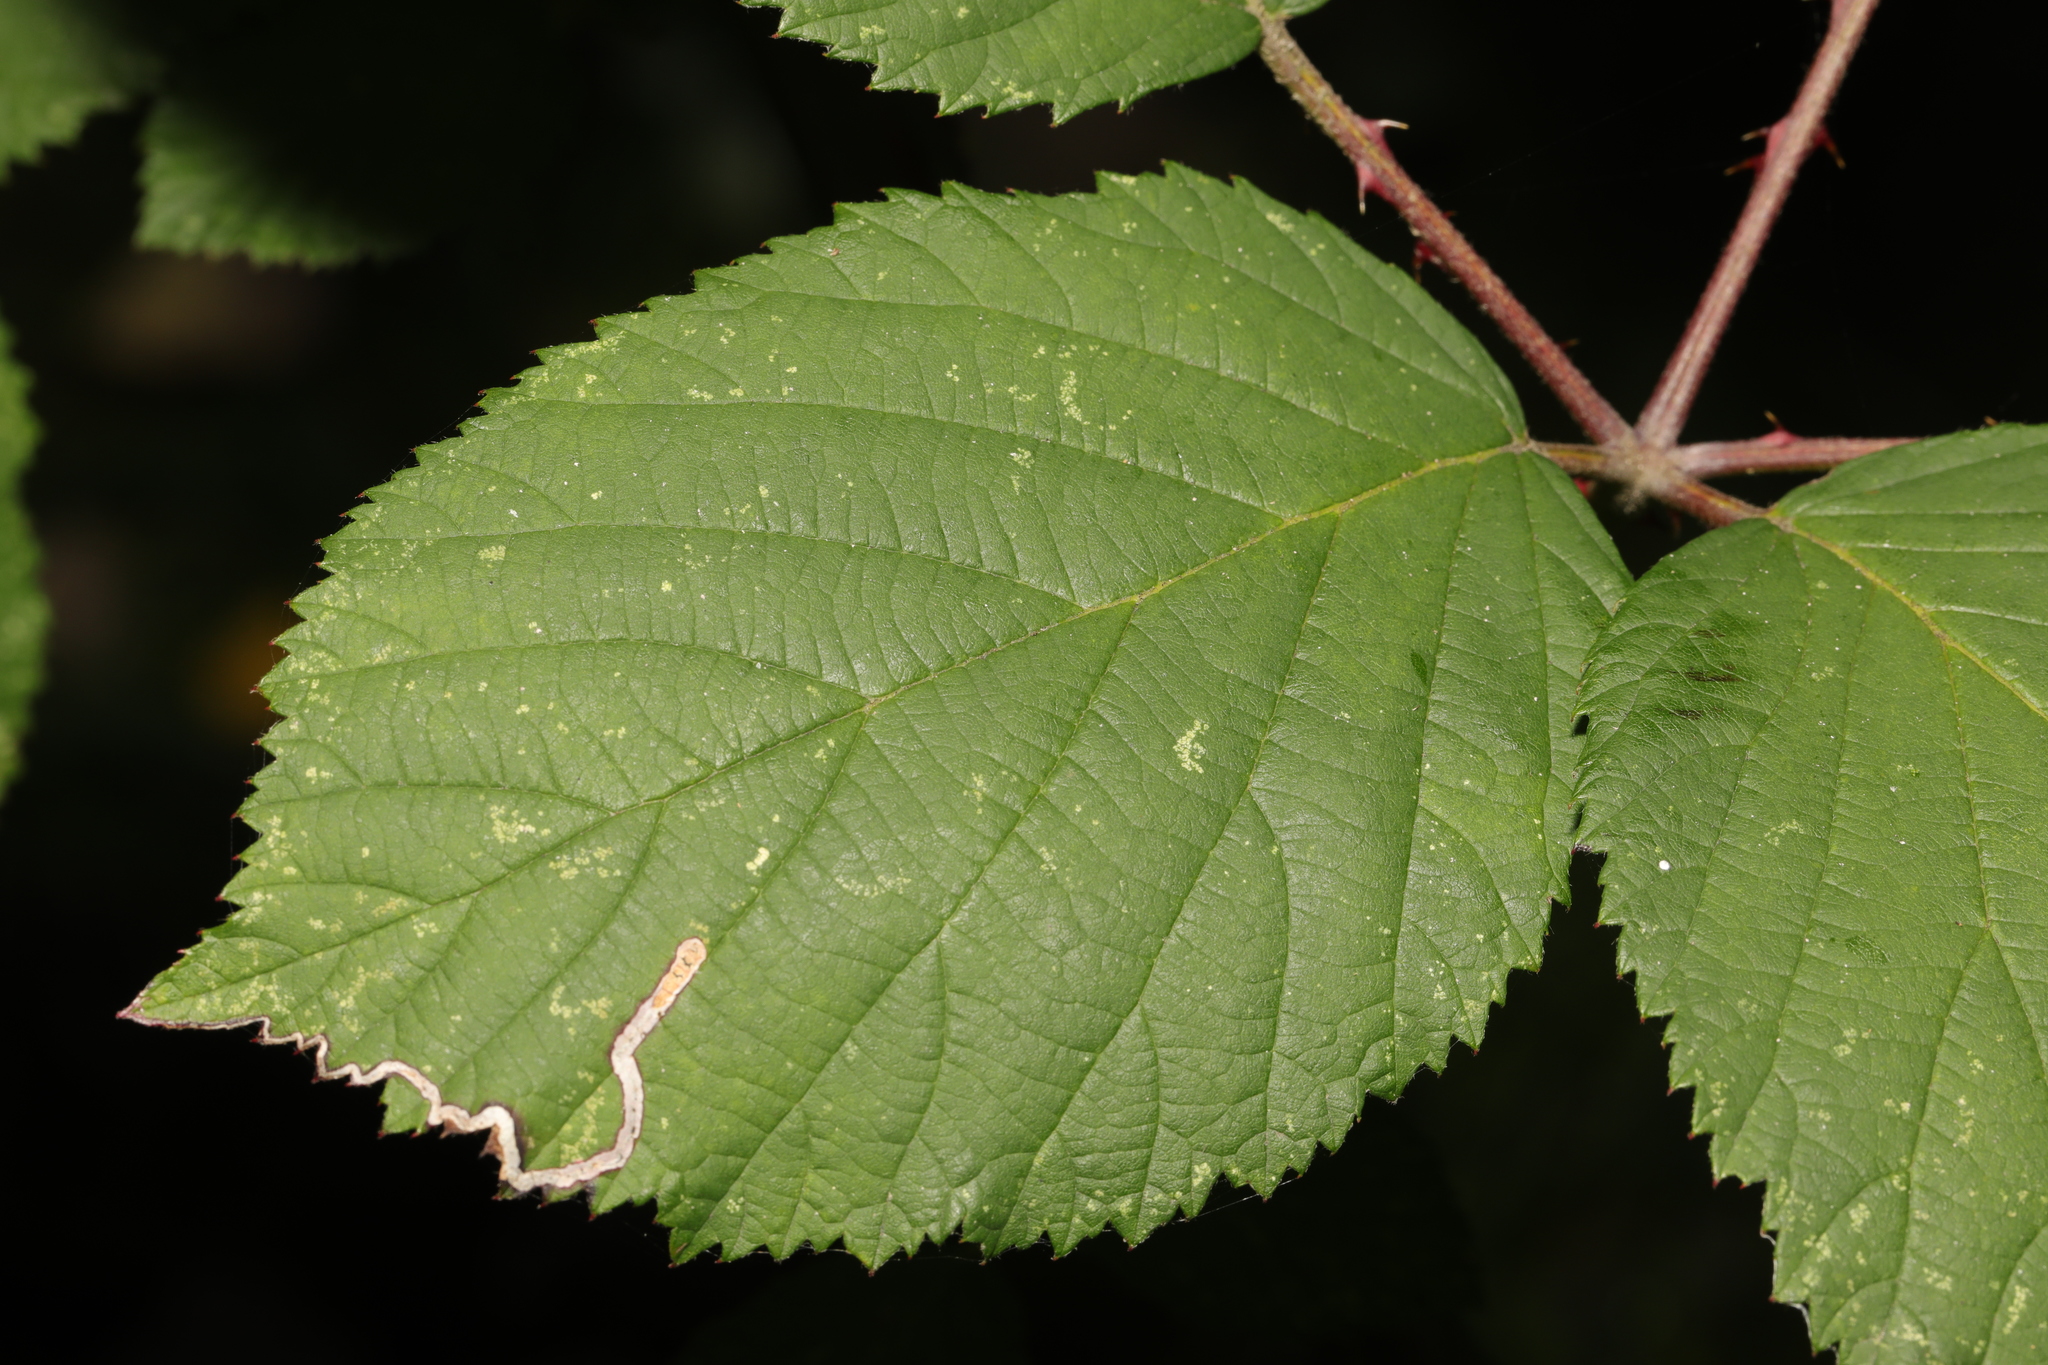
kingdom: Plantae
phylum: Tracheophyta
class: Magnoliopsida
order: Rosales
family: Rosaceae
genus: Rubus
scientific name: Rubus armeniacus
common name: Himalayan blackberry
